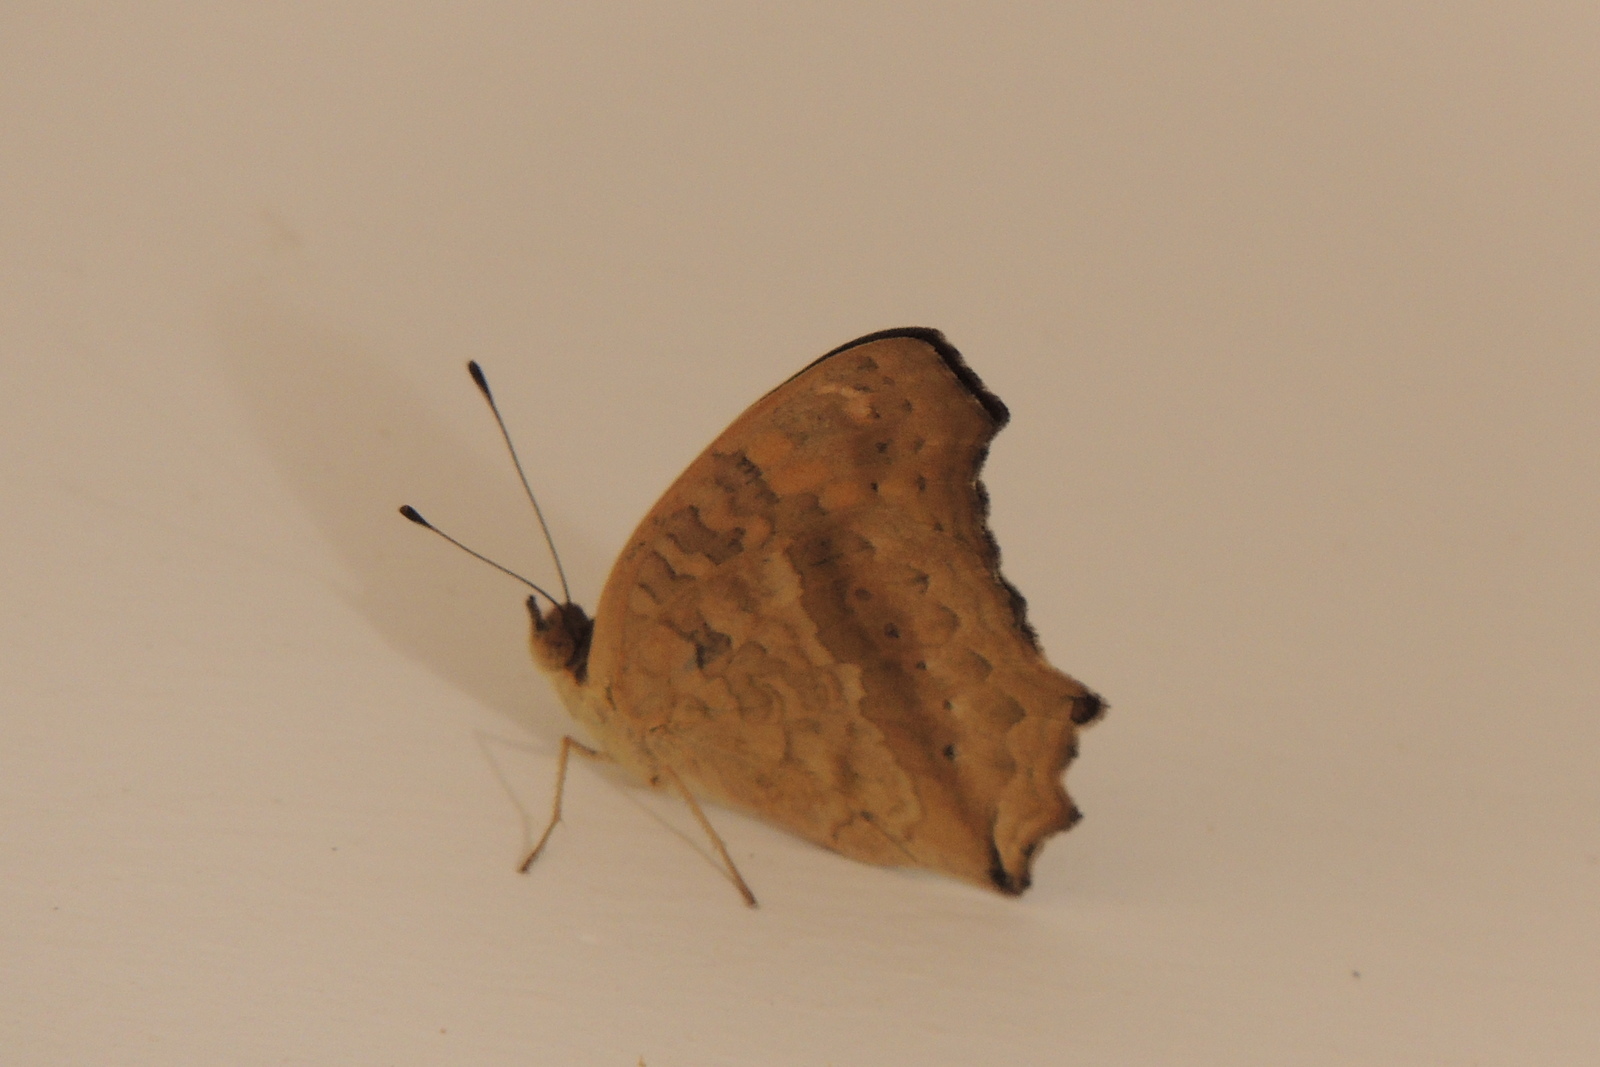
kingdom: Animalia
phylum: Arthropoda
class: Insecta
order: Lepidoptera
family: Nymphalidae
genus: Junonia
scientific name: Junonia lemonias
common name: Lemon pansy
